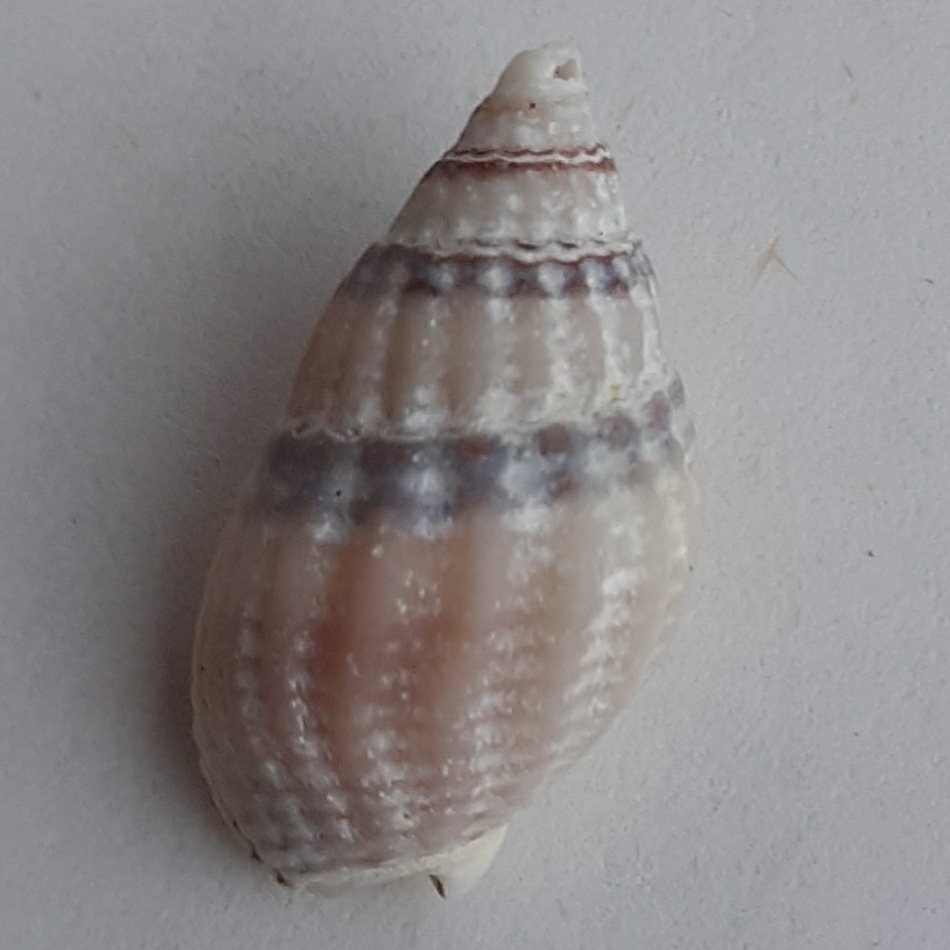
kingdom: Animalia
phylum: Mollusca
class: Gastropoda
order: Neogastropoda
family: Nassariidae
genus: Tritia
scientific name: Tritia reticulata
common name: Netted dog whelk
